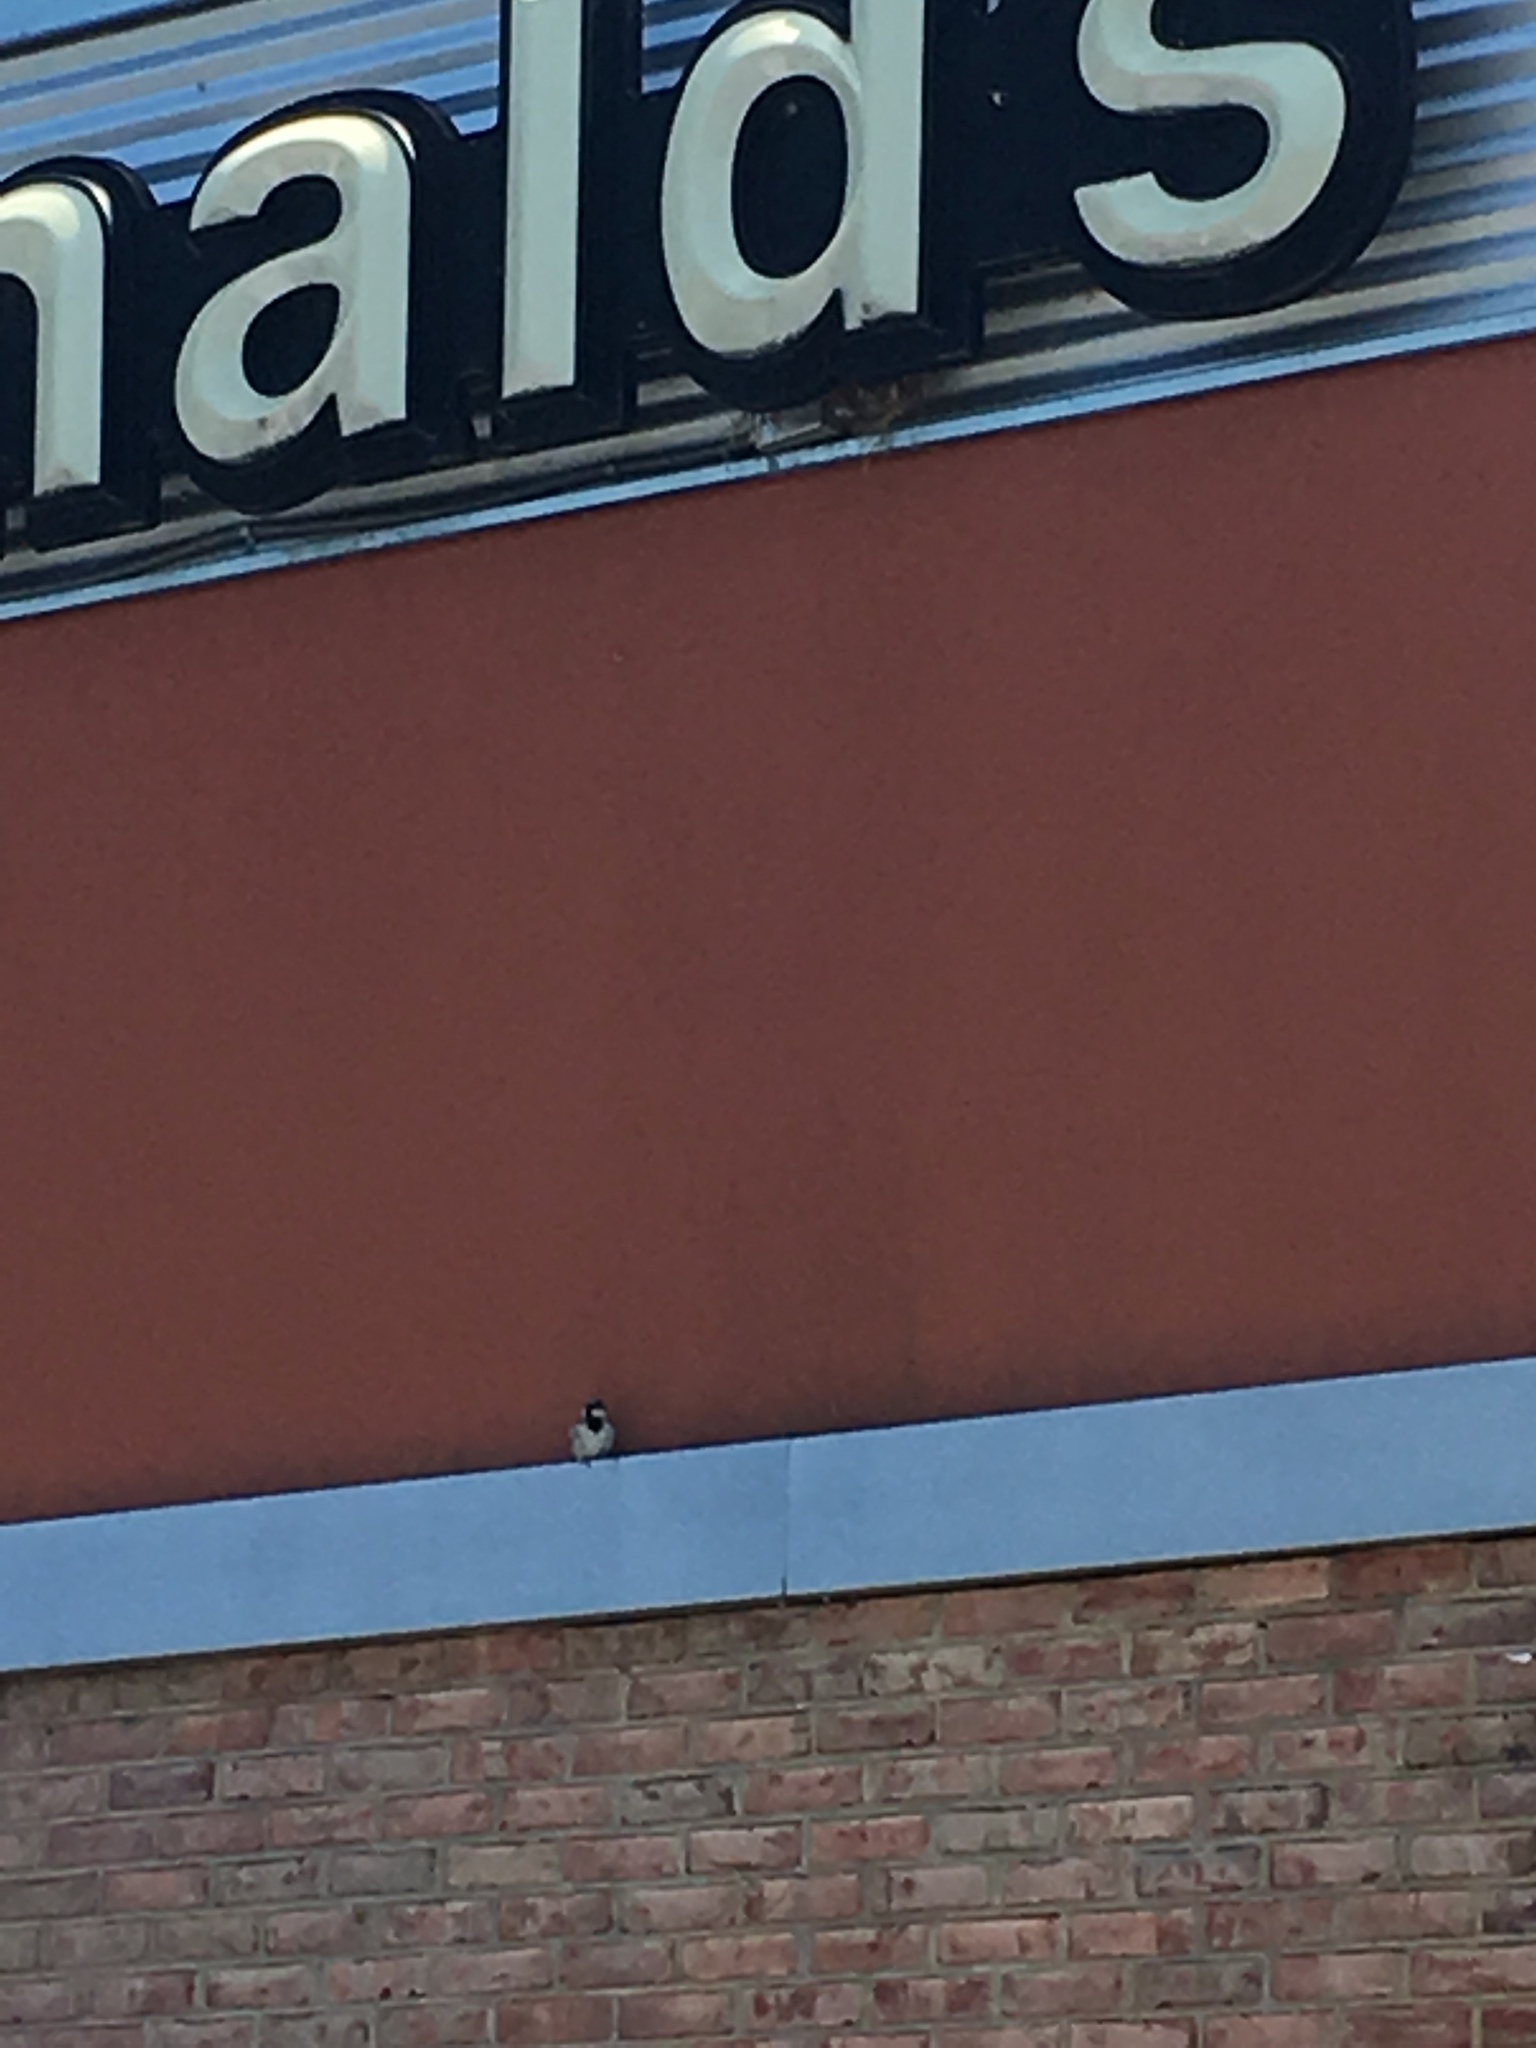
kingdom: Animalia
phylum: Chordata
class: Aves
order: Passeriformes
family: Passeridae
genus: Passer
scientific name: Passer domesticus
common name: House sparrow
